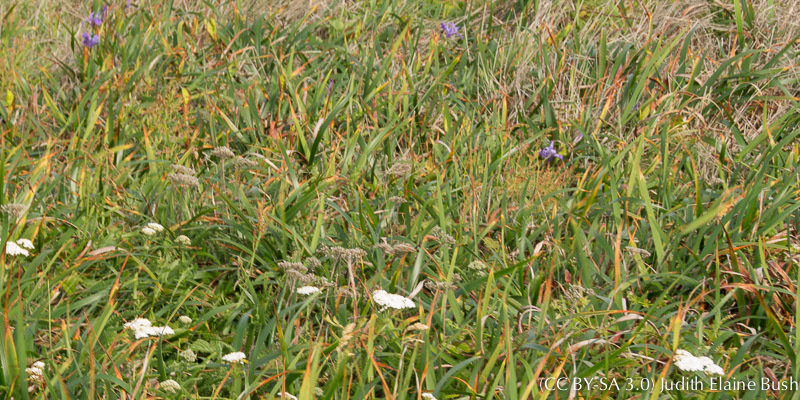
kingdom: Plantae
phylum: Tracheophyta
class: Magnoliopsida
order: Asterales
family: Asteraceae
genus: Achillea
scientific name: Achillea millefolium
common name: Yarrow
